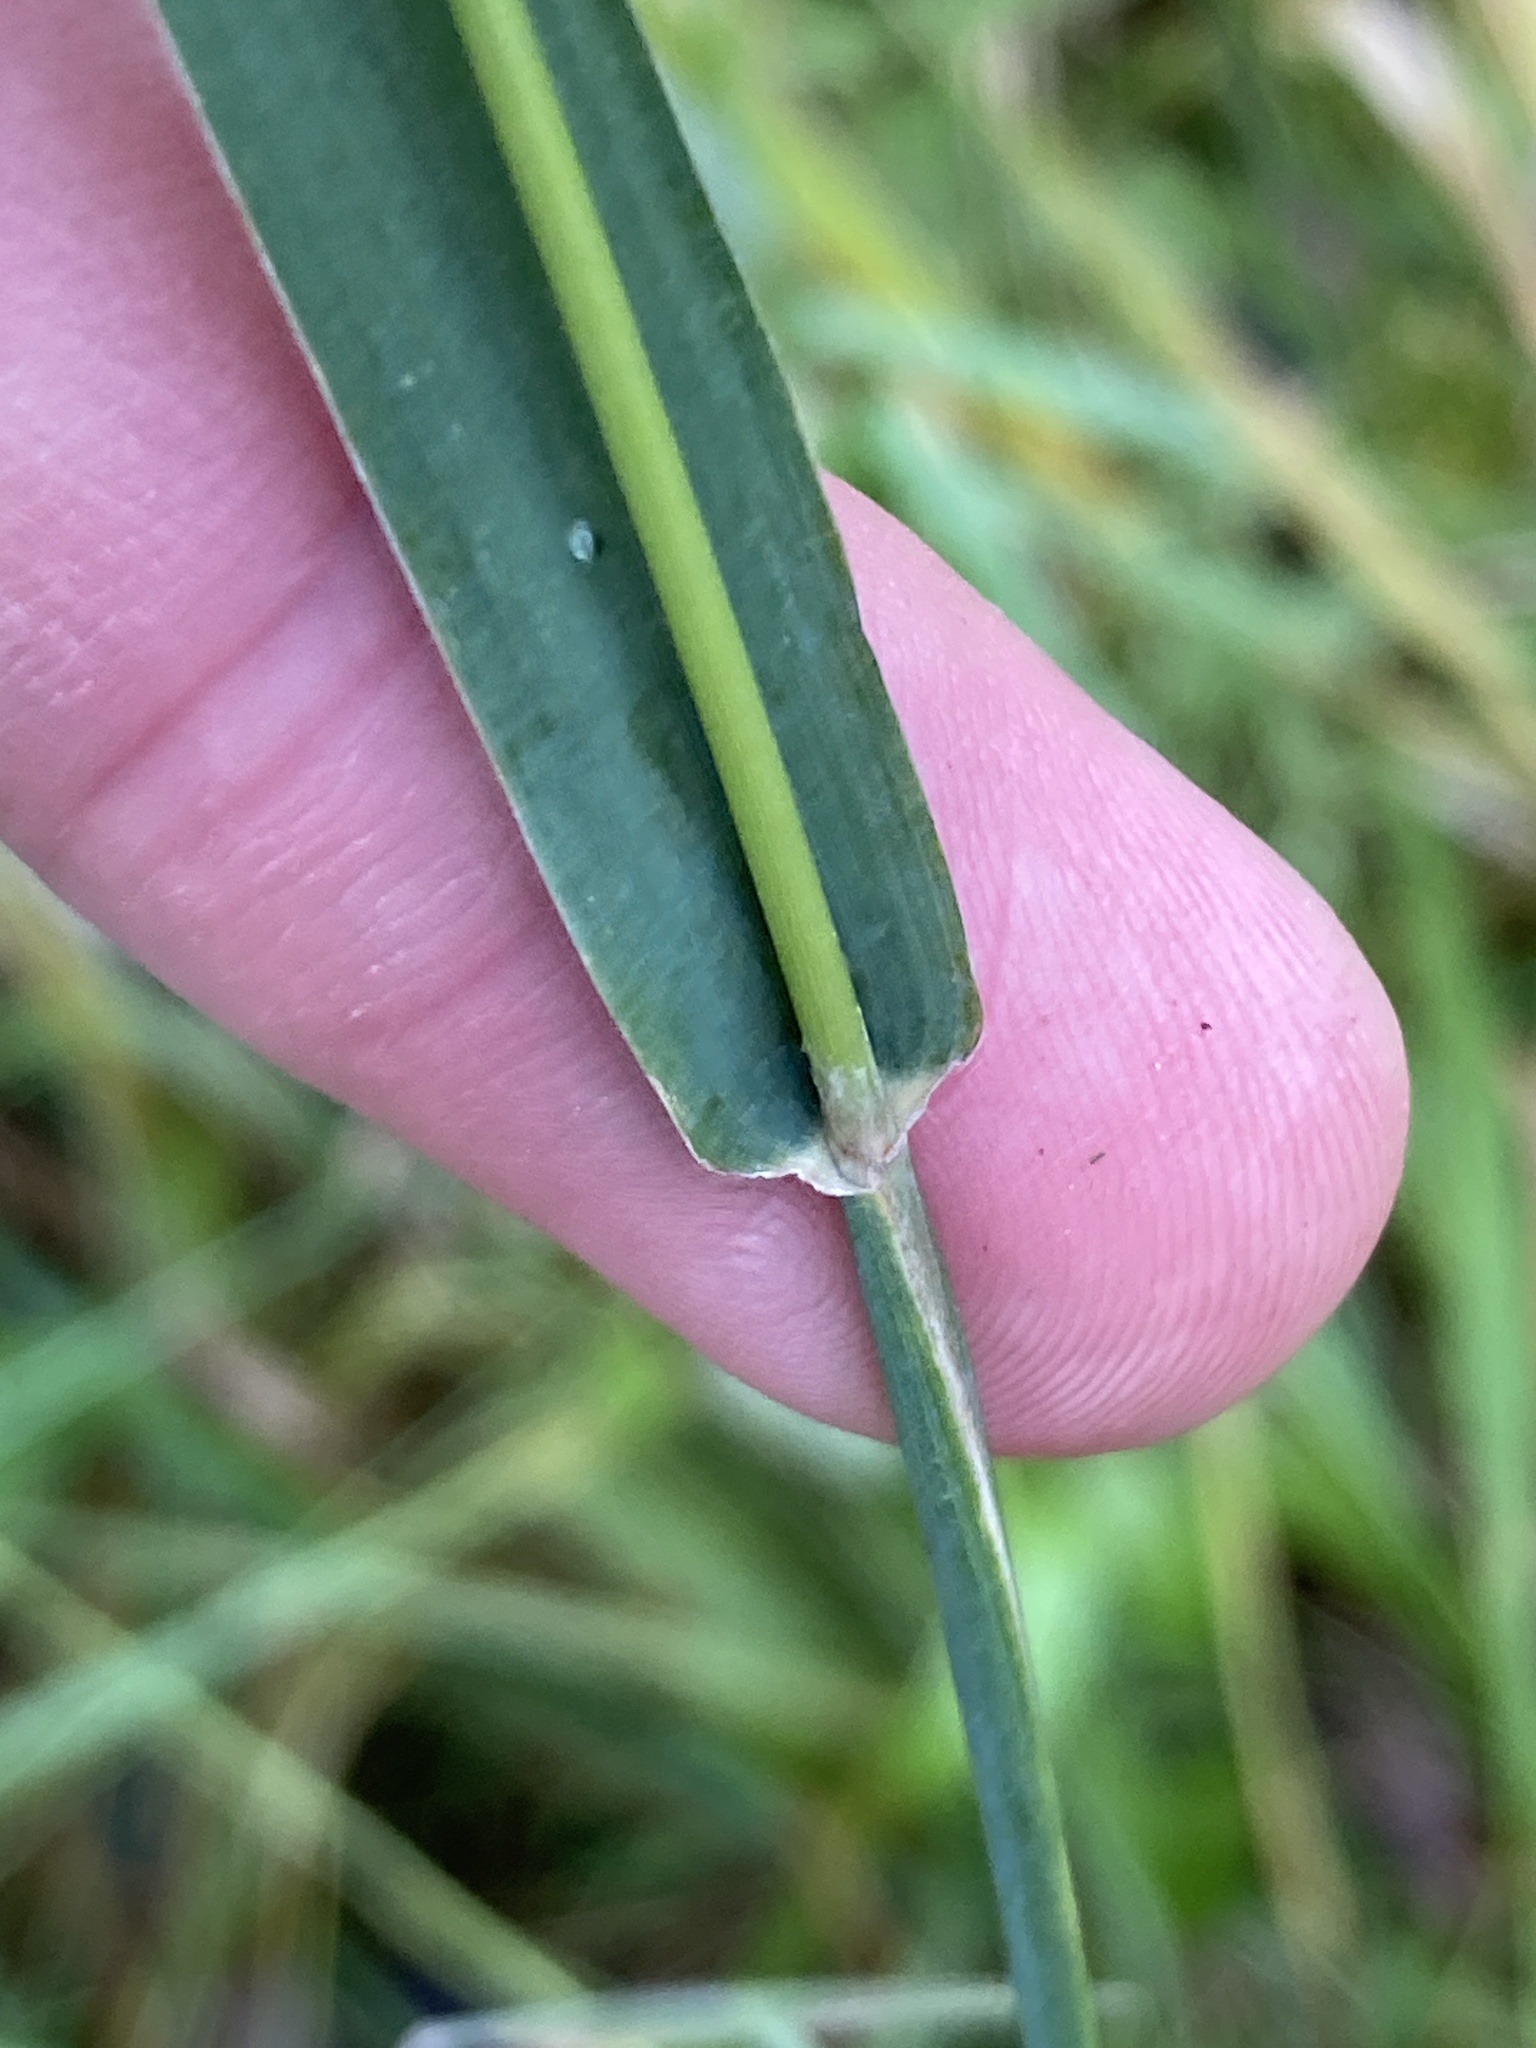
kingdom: Plantae
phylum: Tracheophyta
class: Liliopsida
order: Poales
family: Poaceae
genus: Phleum
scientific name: Phleum pratense
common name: Timothy grass
